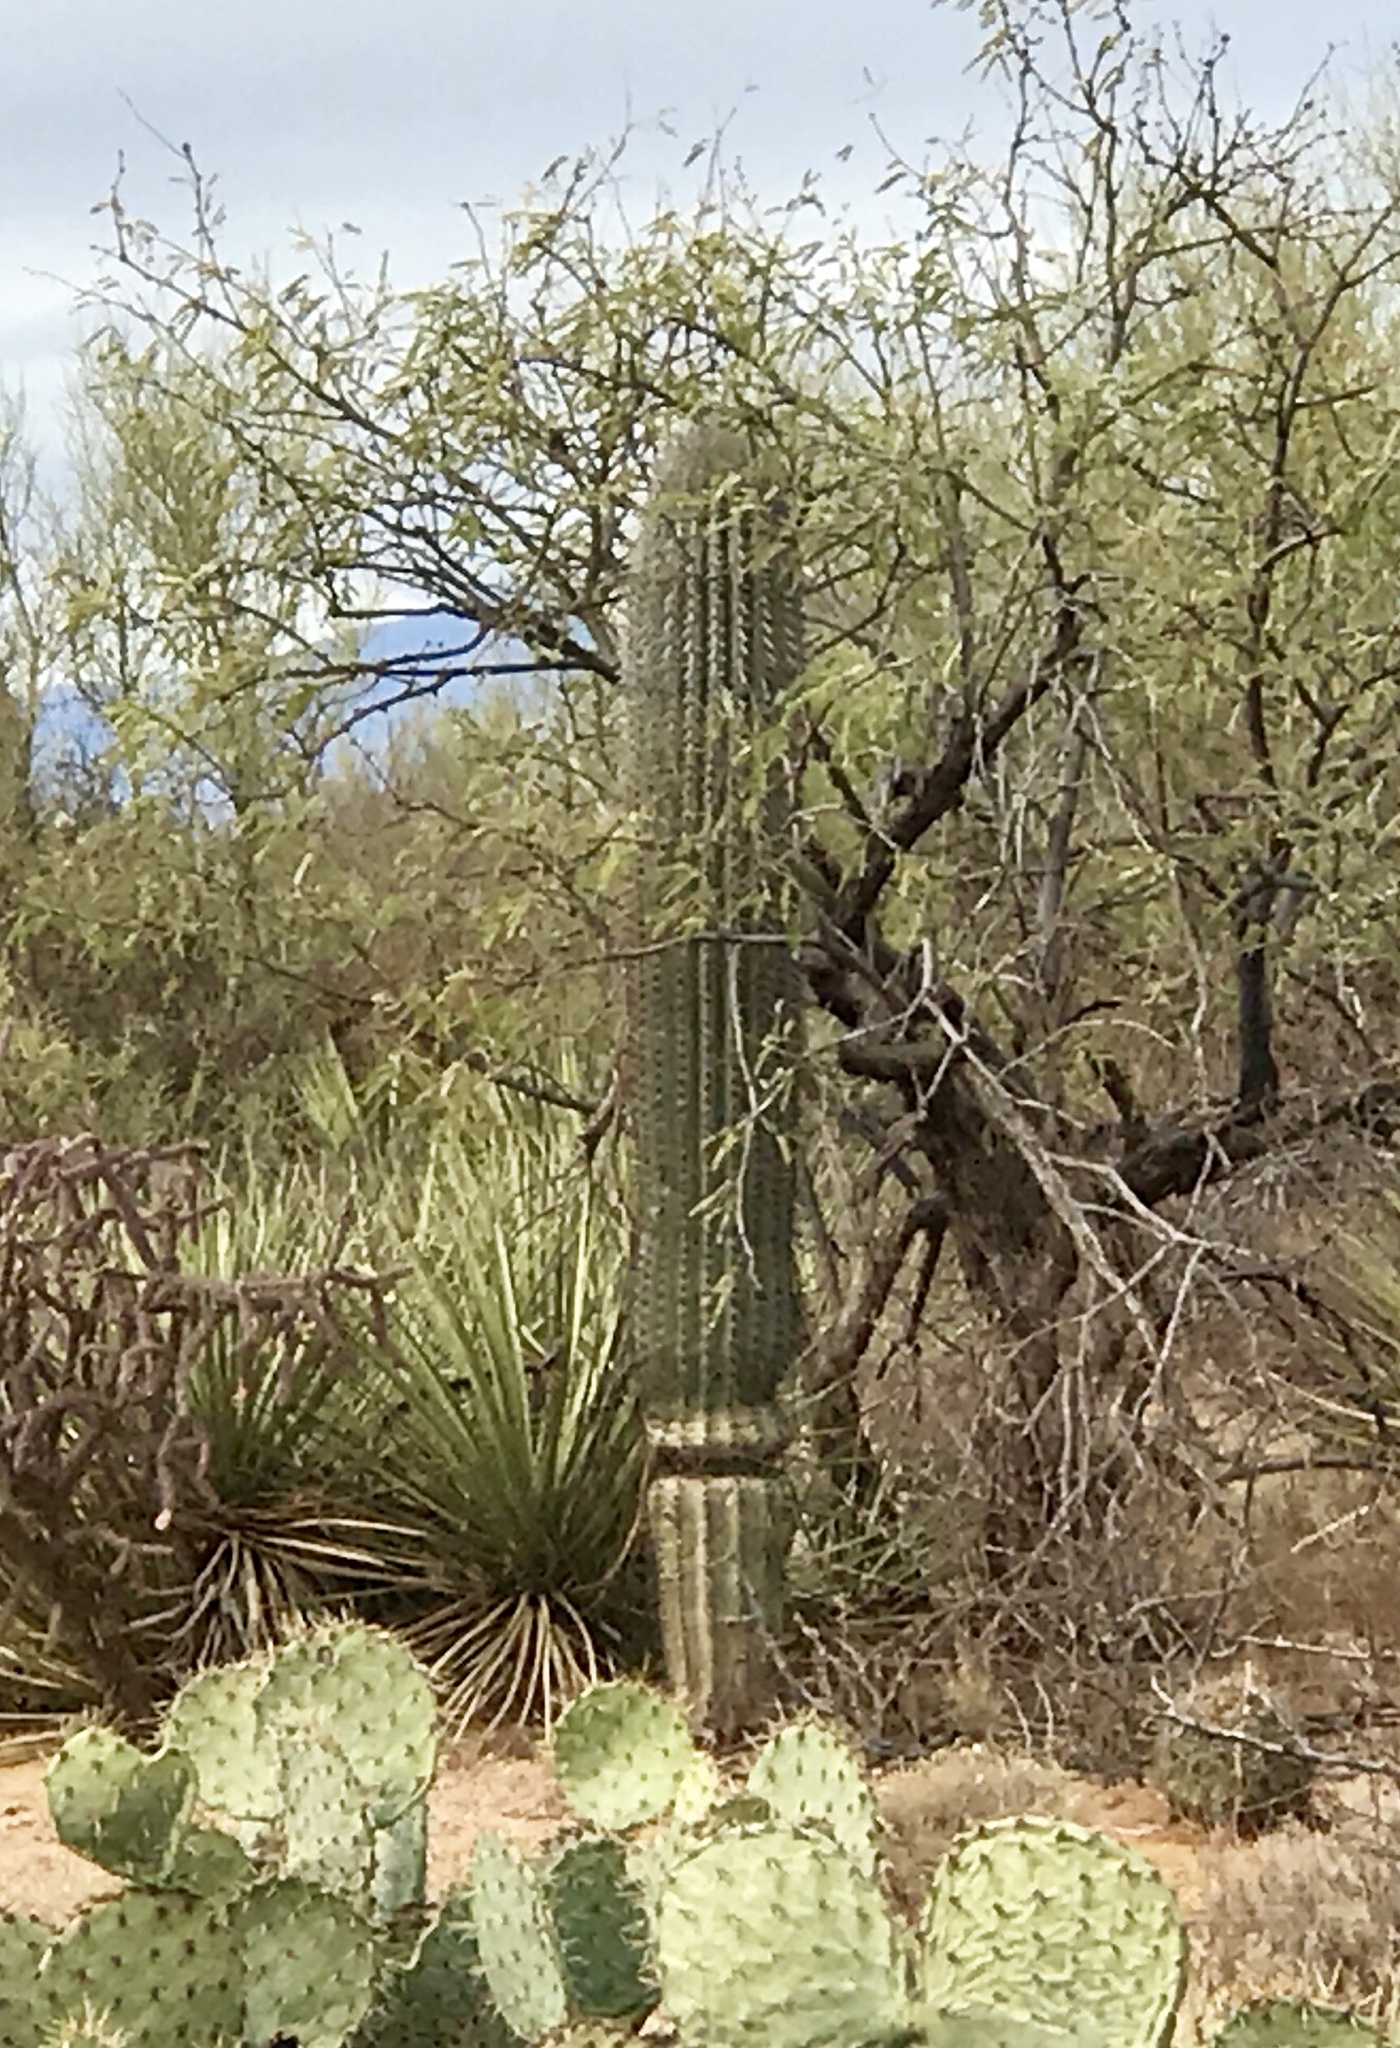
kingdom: Plantae
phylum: Tracheophyta
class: Magnoliopsida
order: Caryophyllales
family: Cactaceae
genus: Carnegiea
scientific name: Carnegiea gigantea
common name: Saguaro
